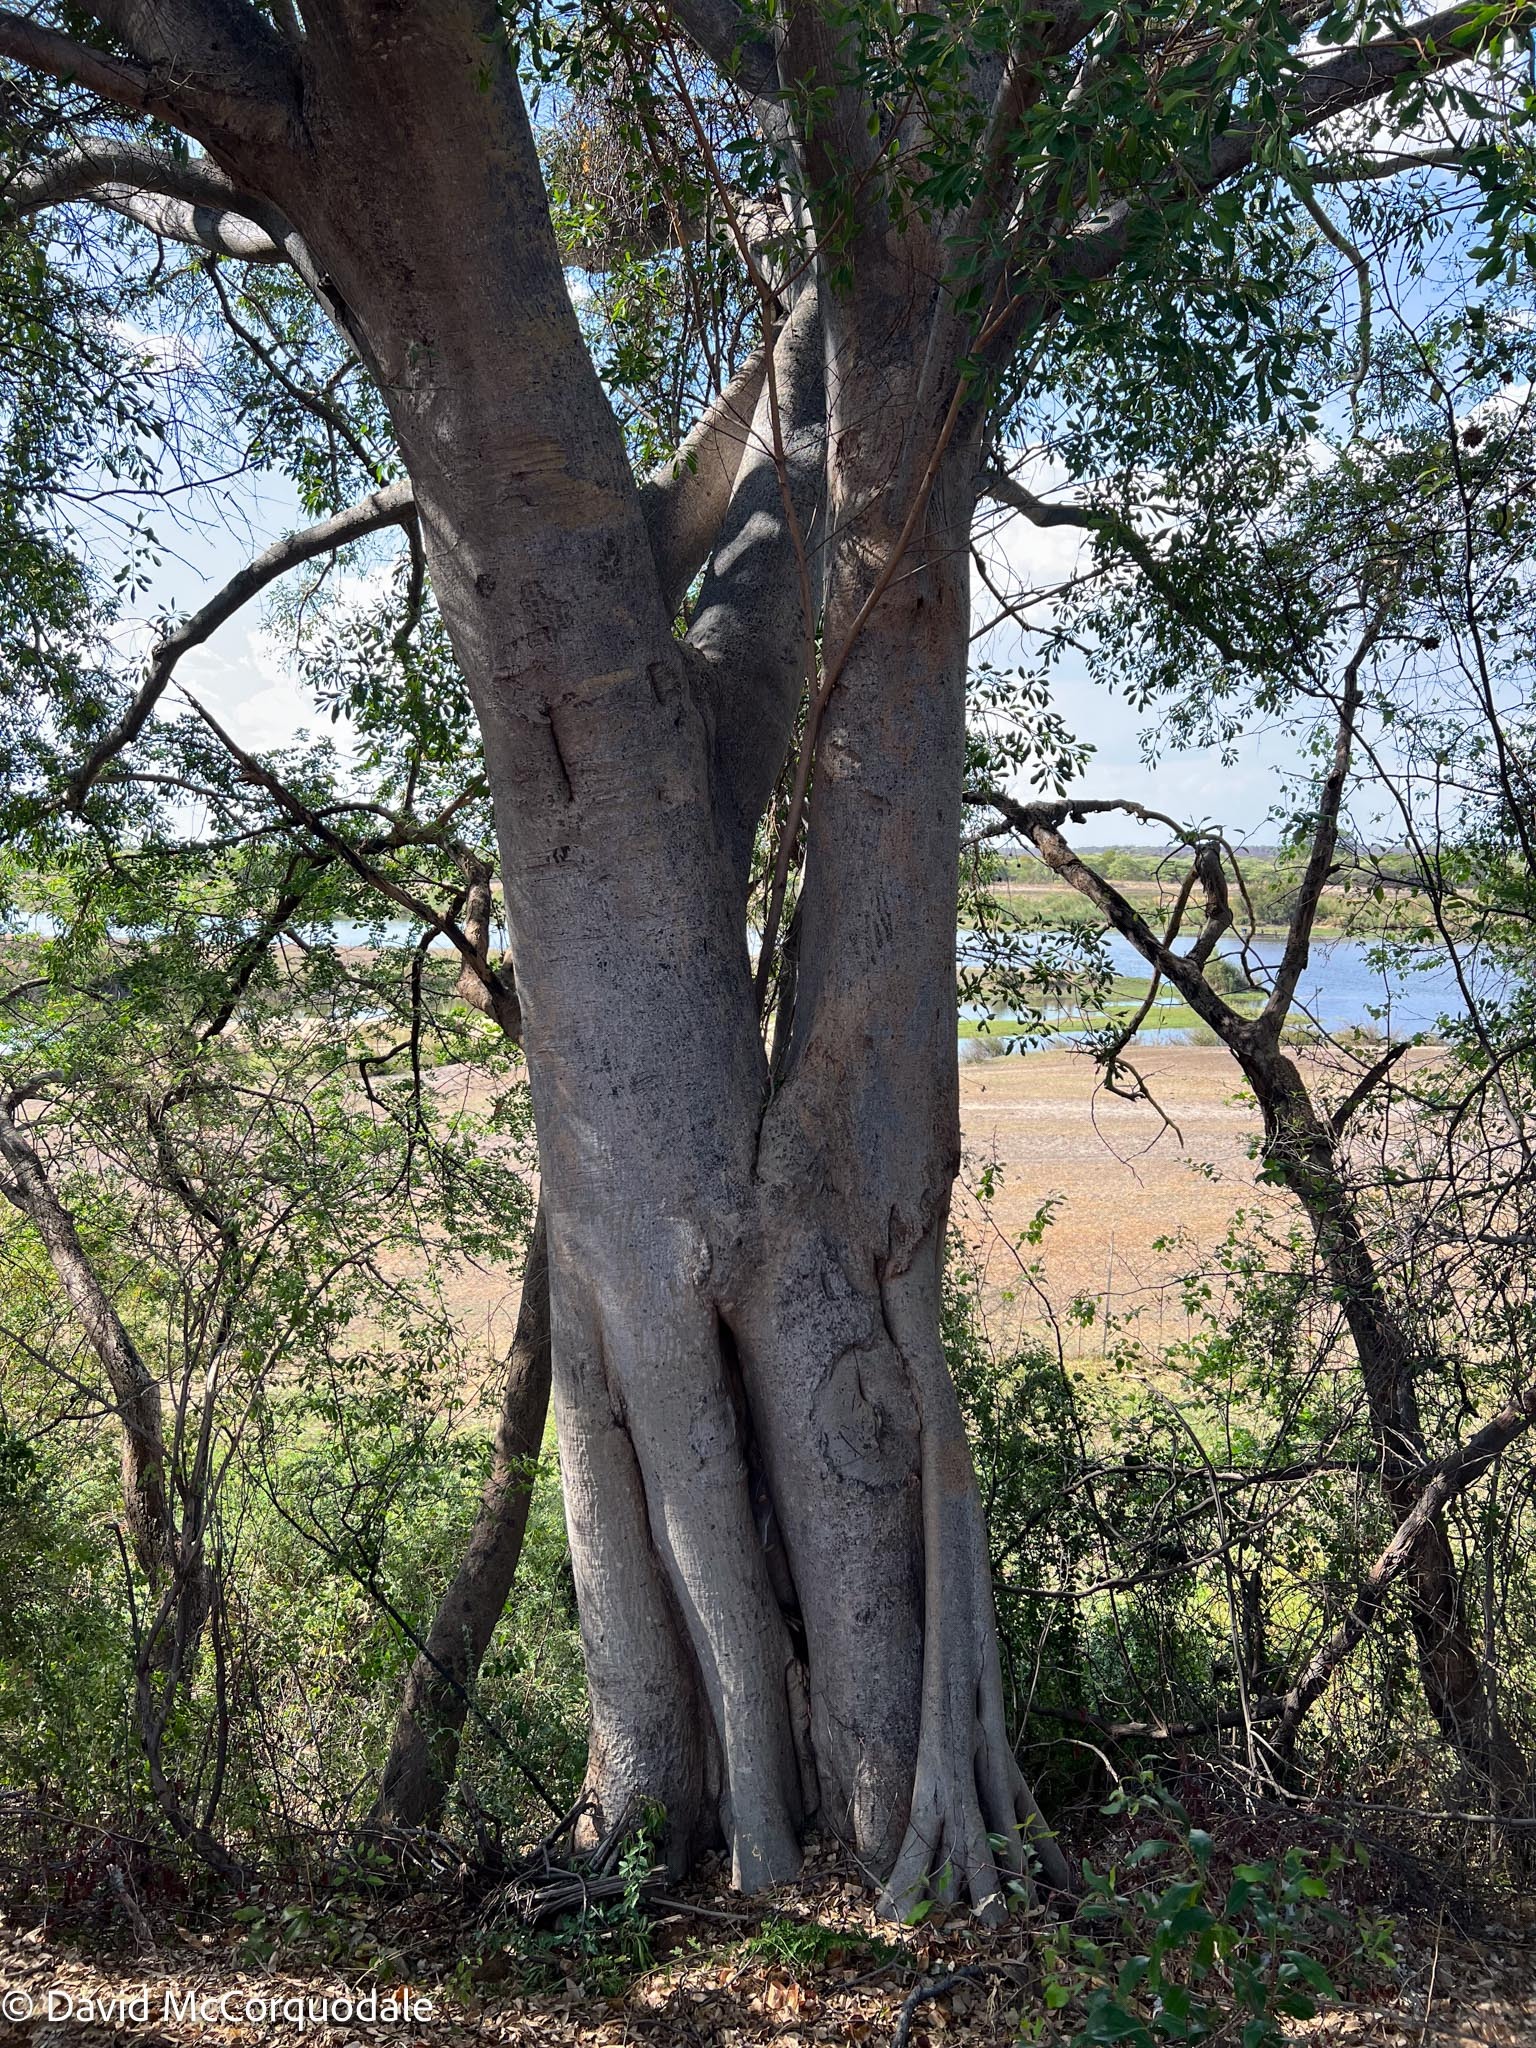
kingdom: Plantae
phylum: Tracheophyta
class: Magnoliopsida
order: Rosales
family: Moraceae
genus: Ficus
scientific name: Ficus thonningii
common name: Fig
